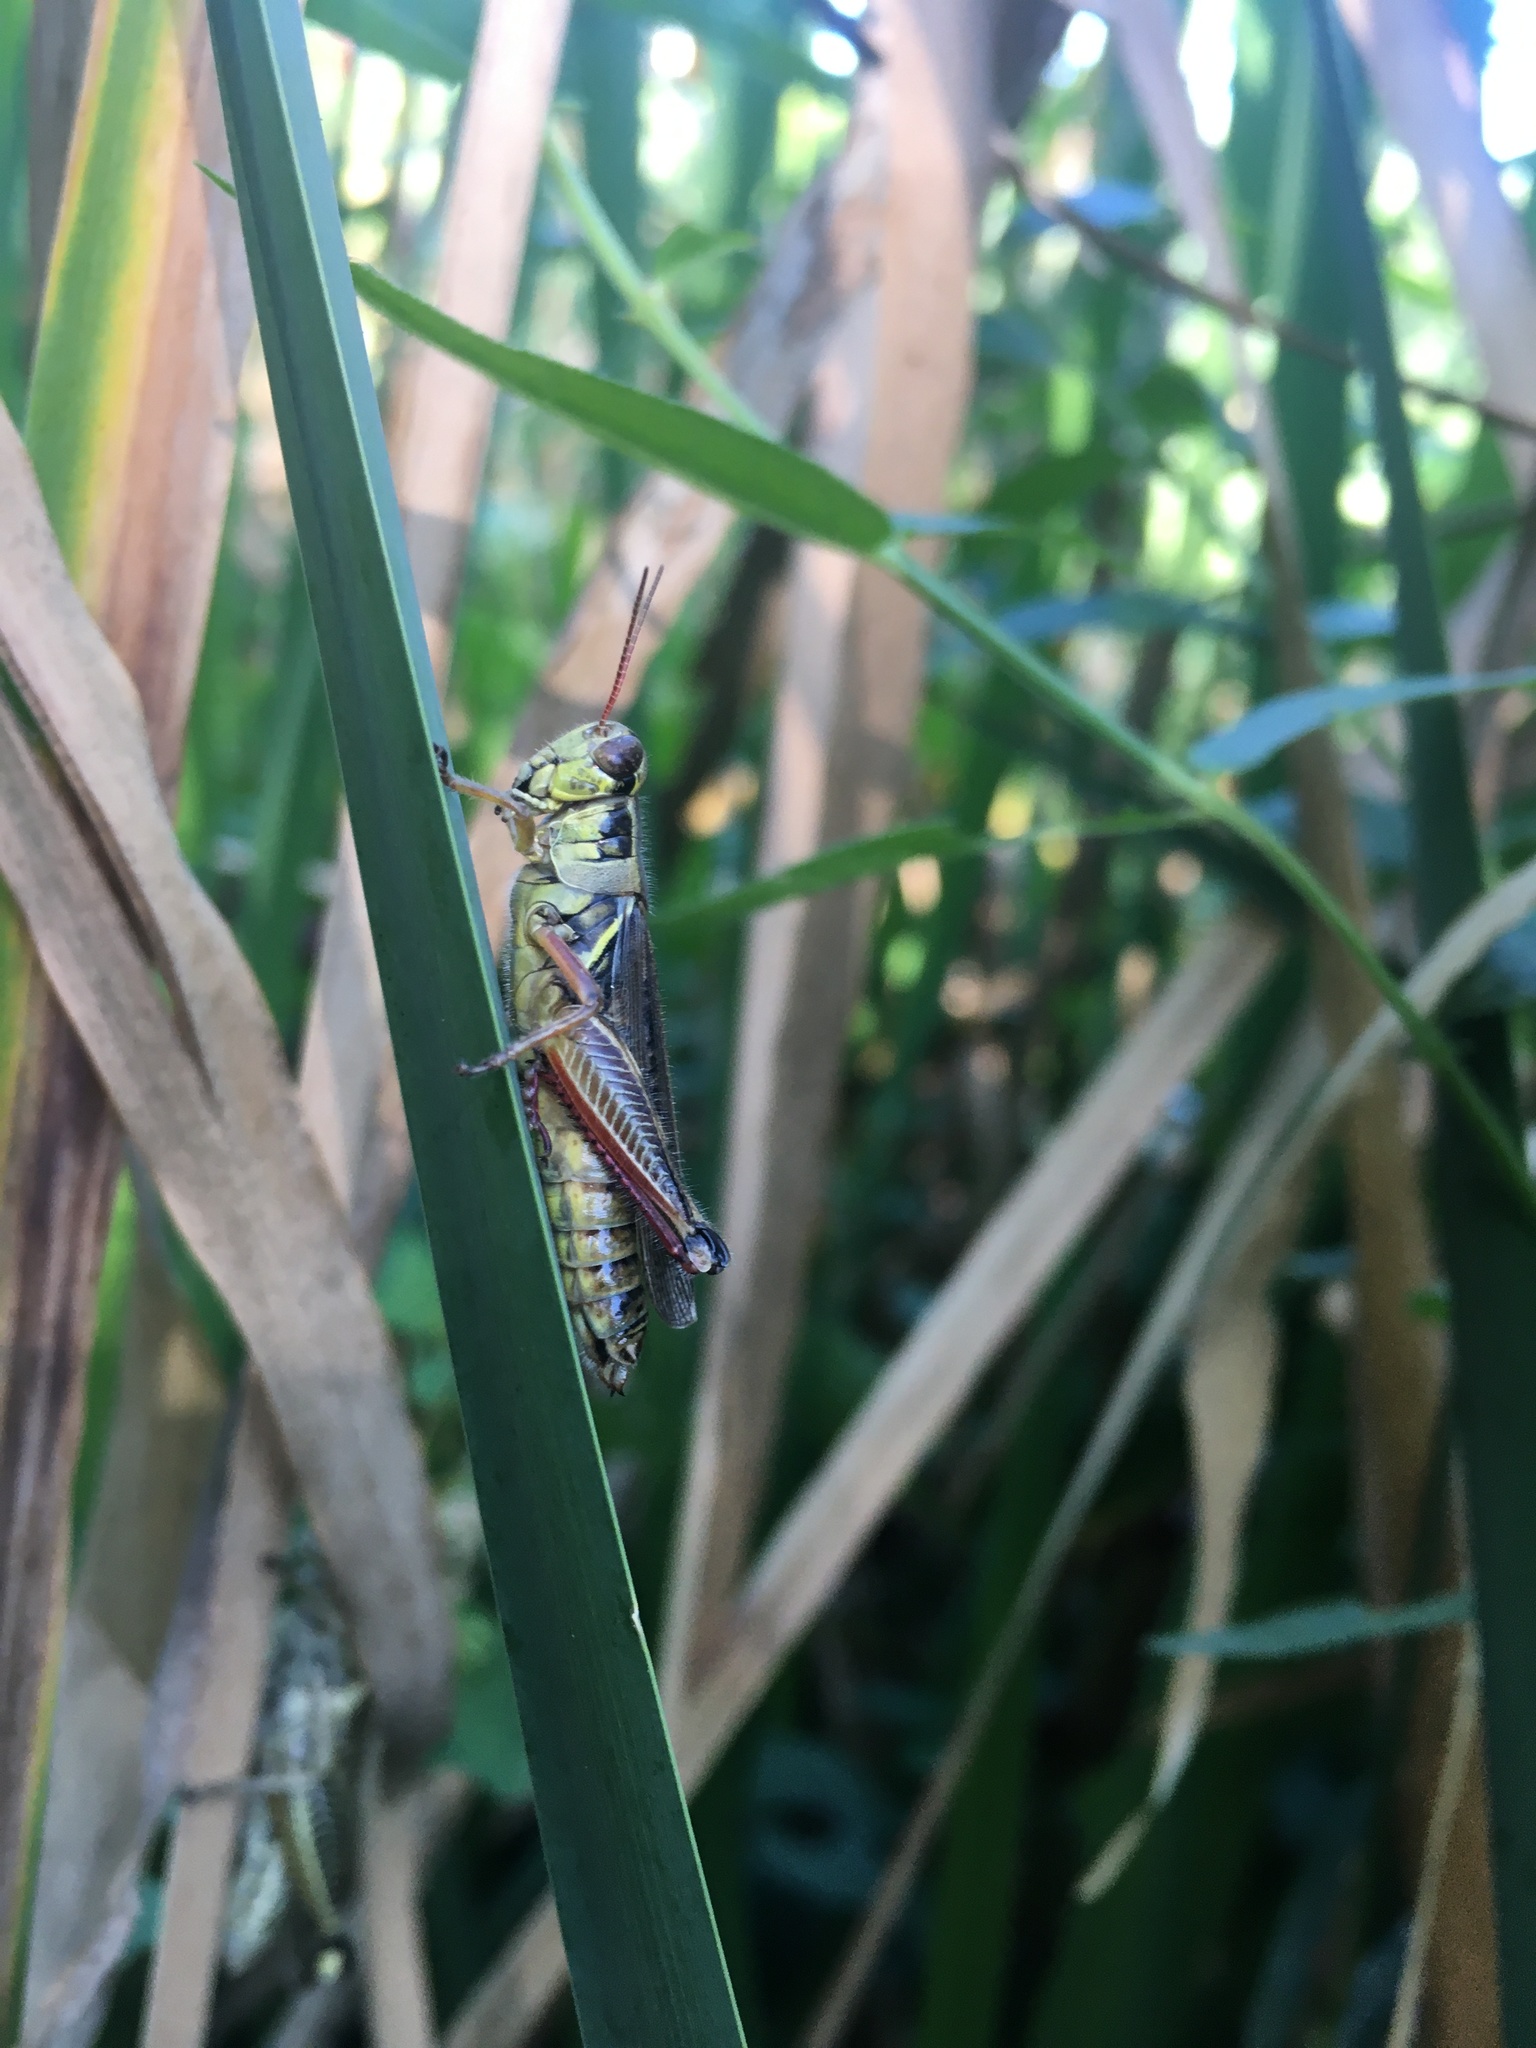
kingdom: Animalia
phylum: Arthropoda
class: Insecta
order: Orthoptera
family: Acrididae
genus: Melanoplus
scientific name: Melanoplus femurrubrum
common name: Red-legged grasshopper
